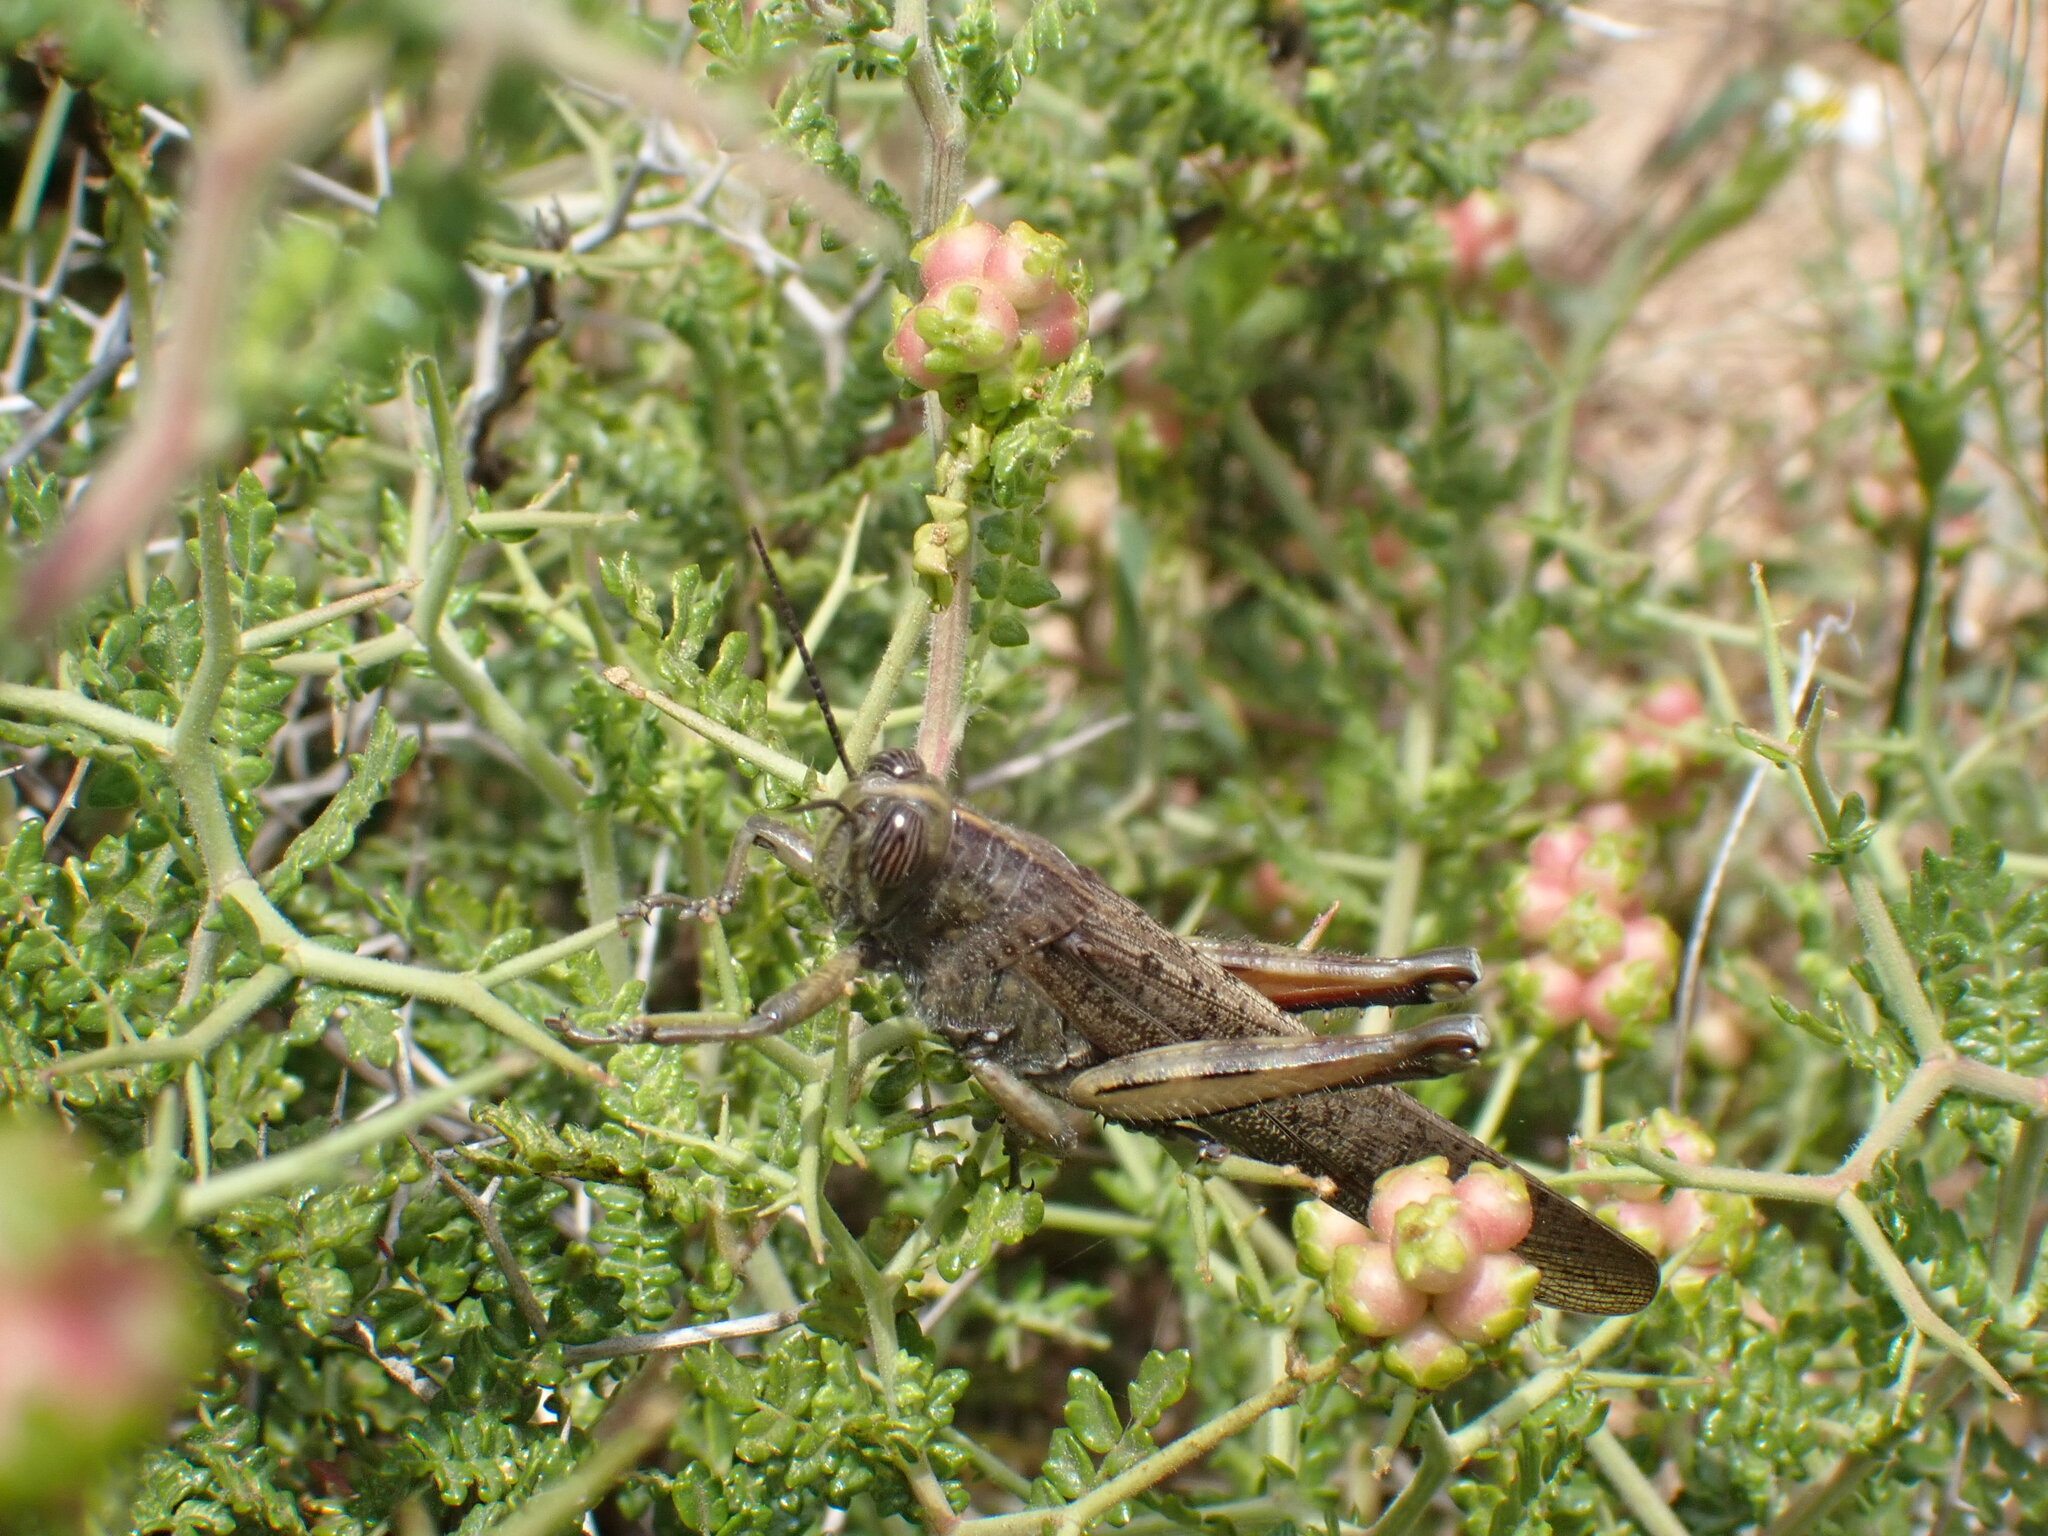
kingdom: Animalia
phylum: Arthropoda
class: Insecta
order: Orthoptera
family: Acrididae
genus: Anacridium
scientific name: Anacridium aegyptium
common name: Egyptian grasshopper
